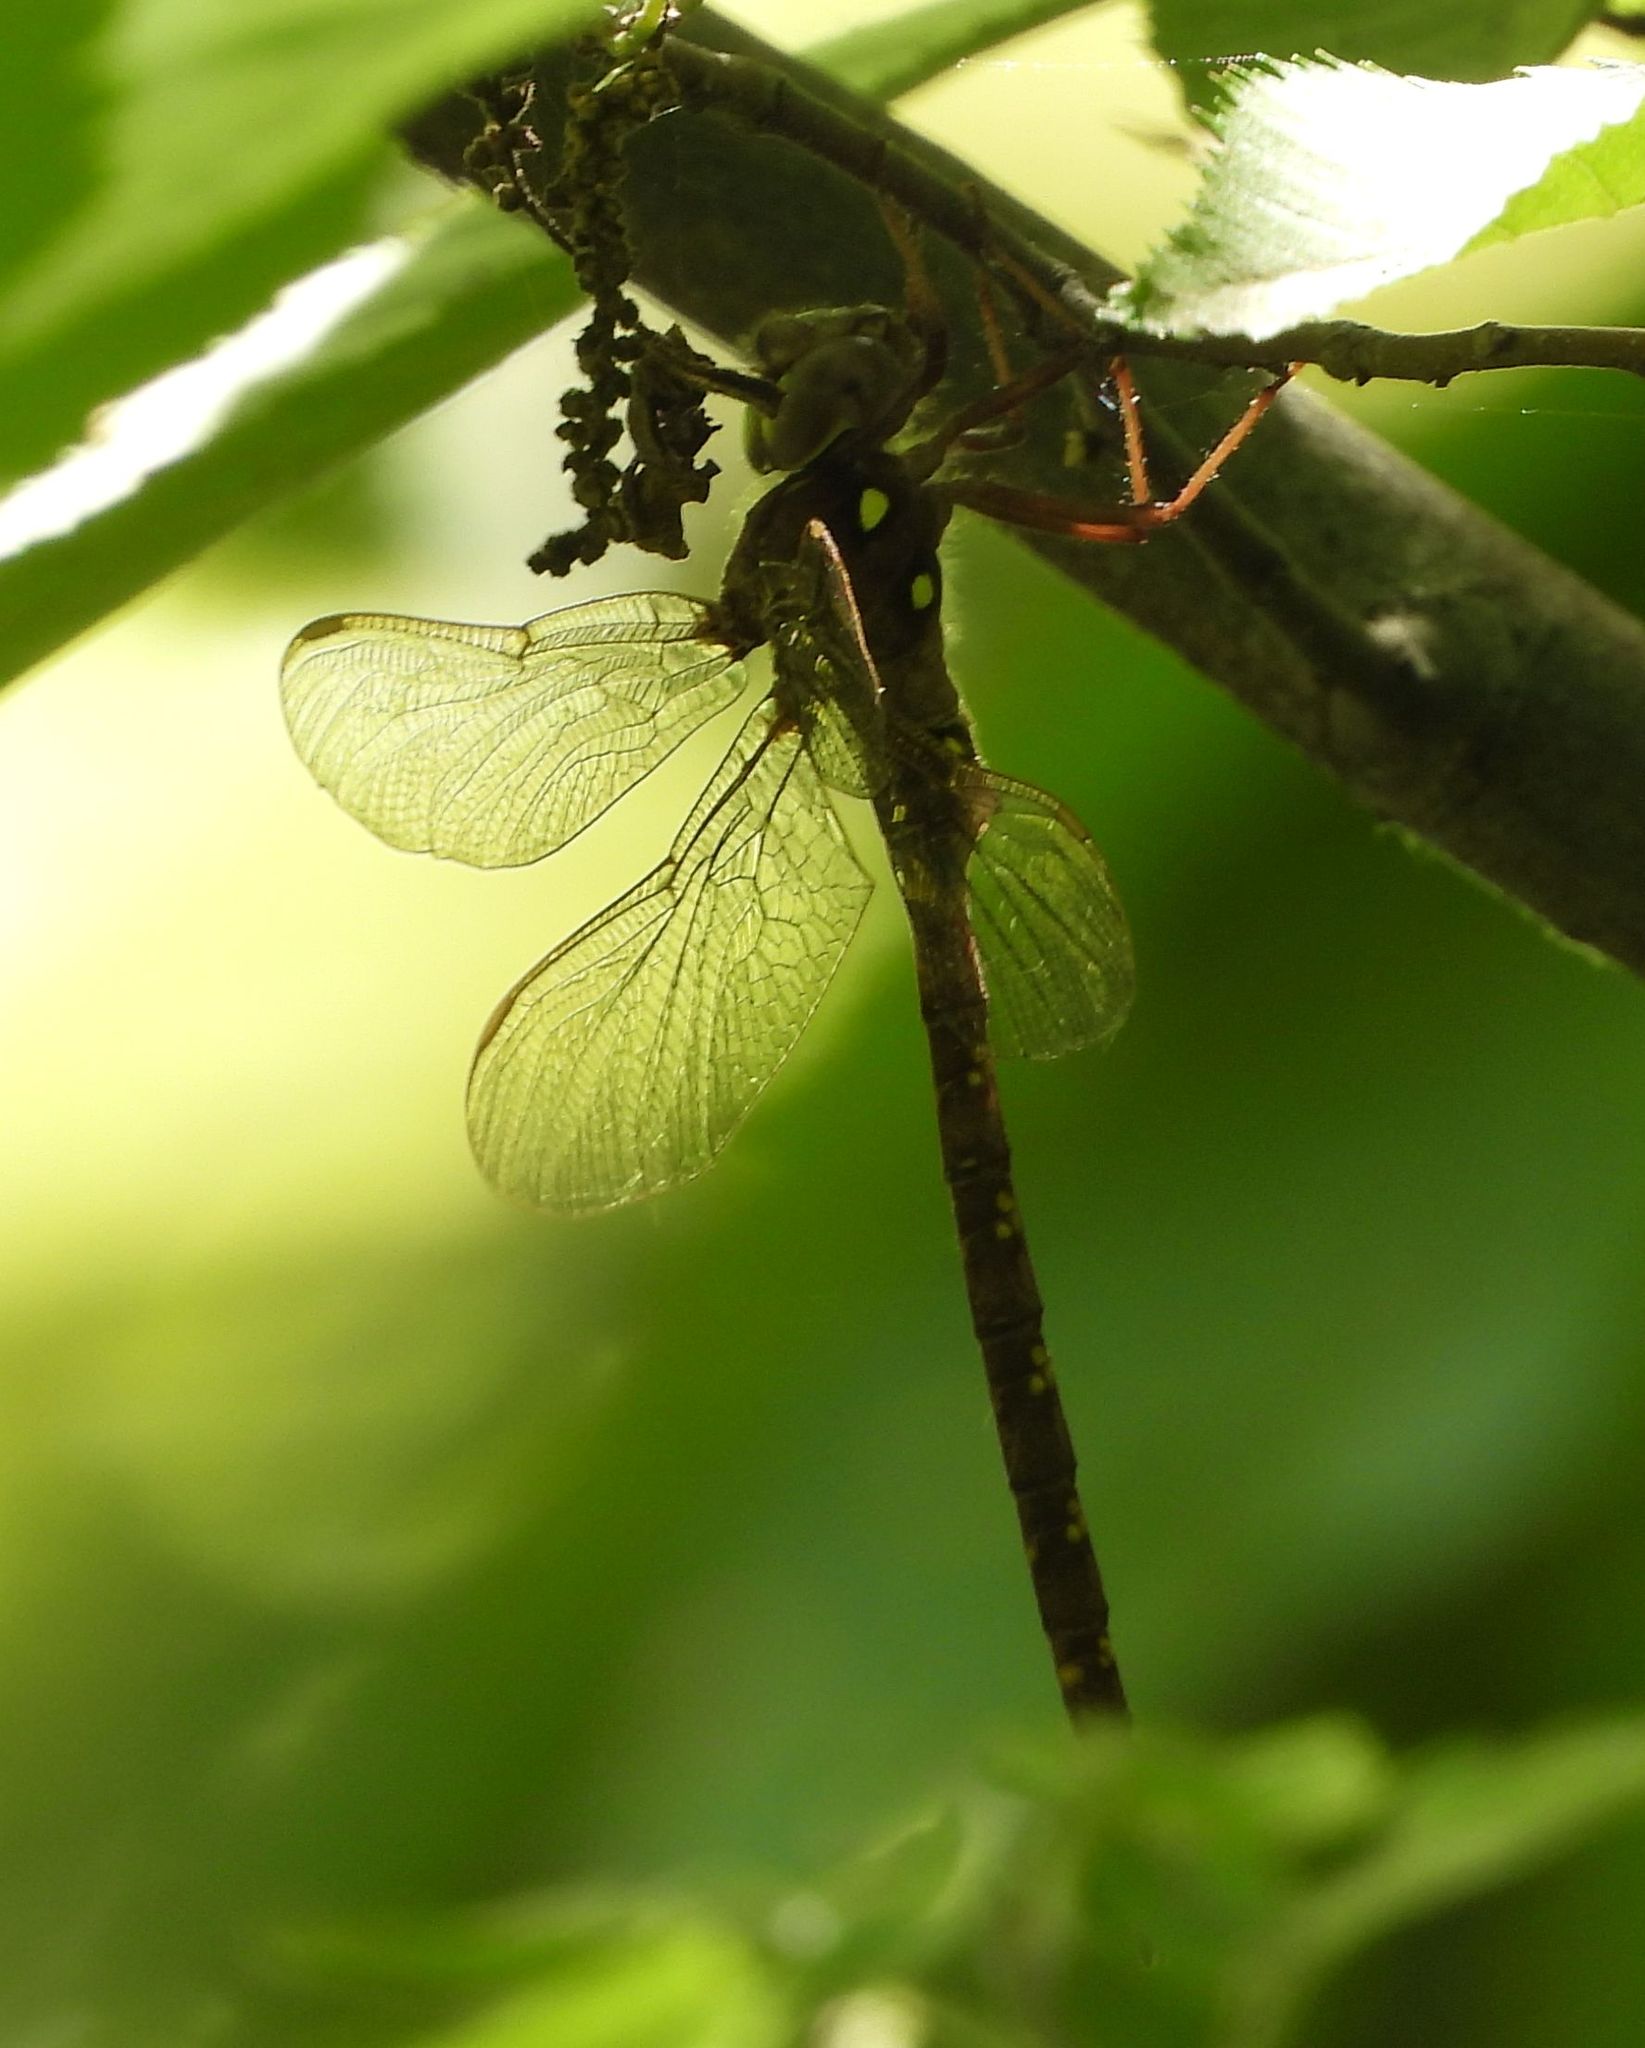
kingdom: Animalia
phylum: Arthropoda
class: Insecta
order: Odonata
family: Aeshnidae
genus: Boyeria
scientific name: Boyeria vinosa
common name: Fawn darner
